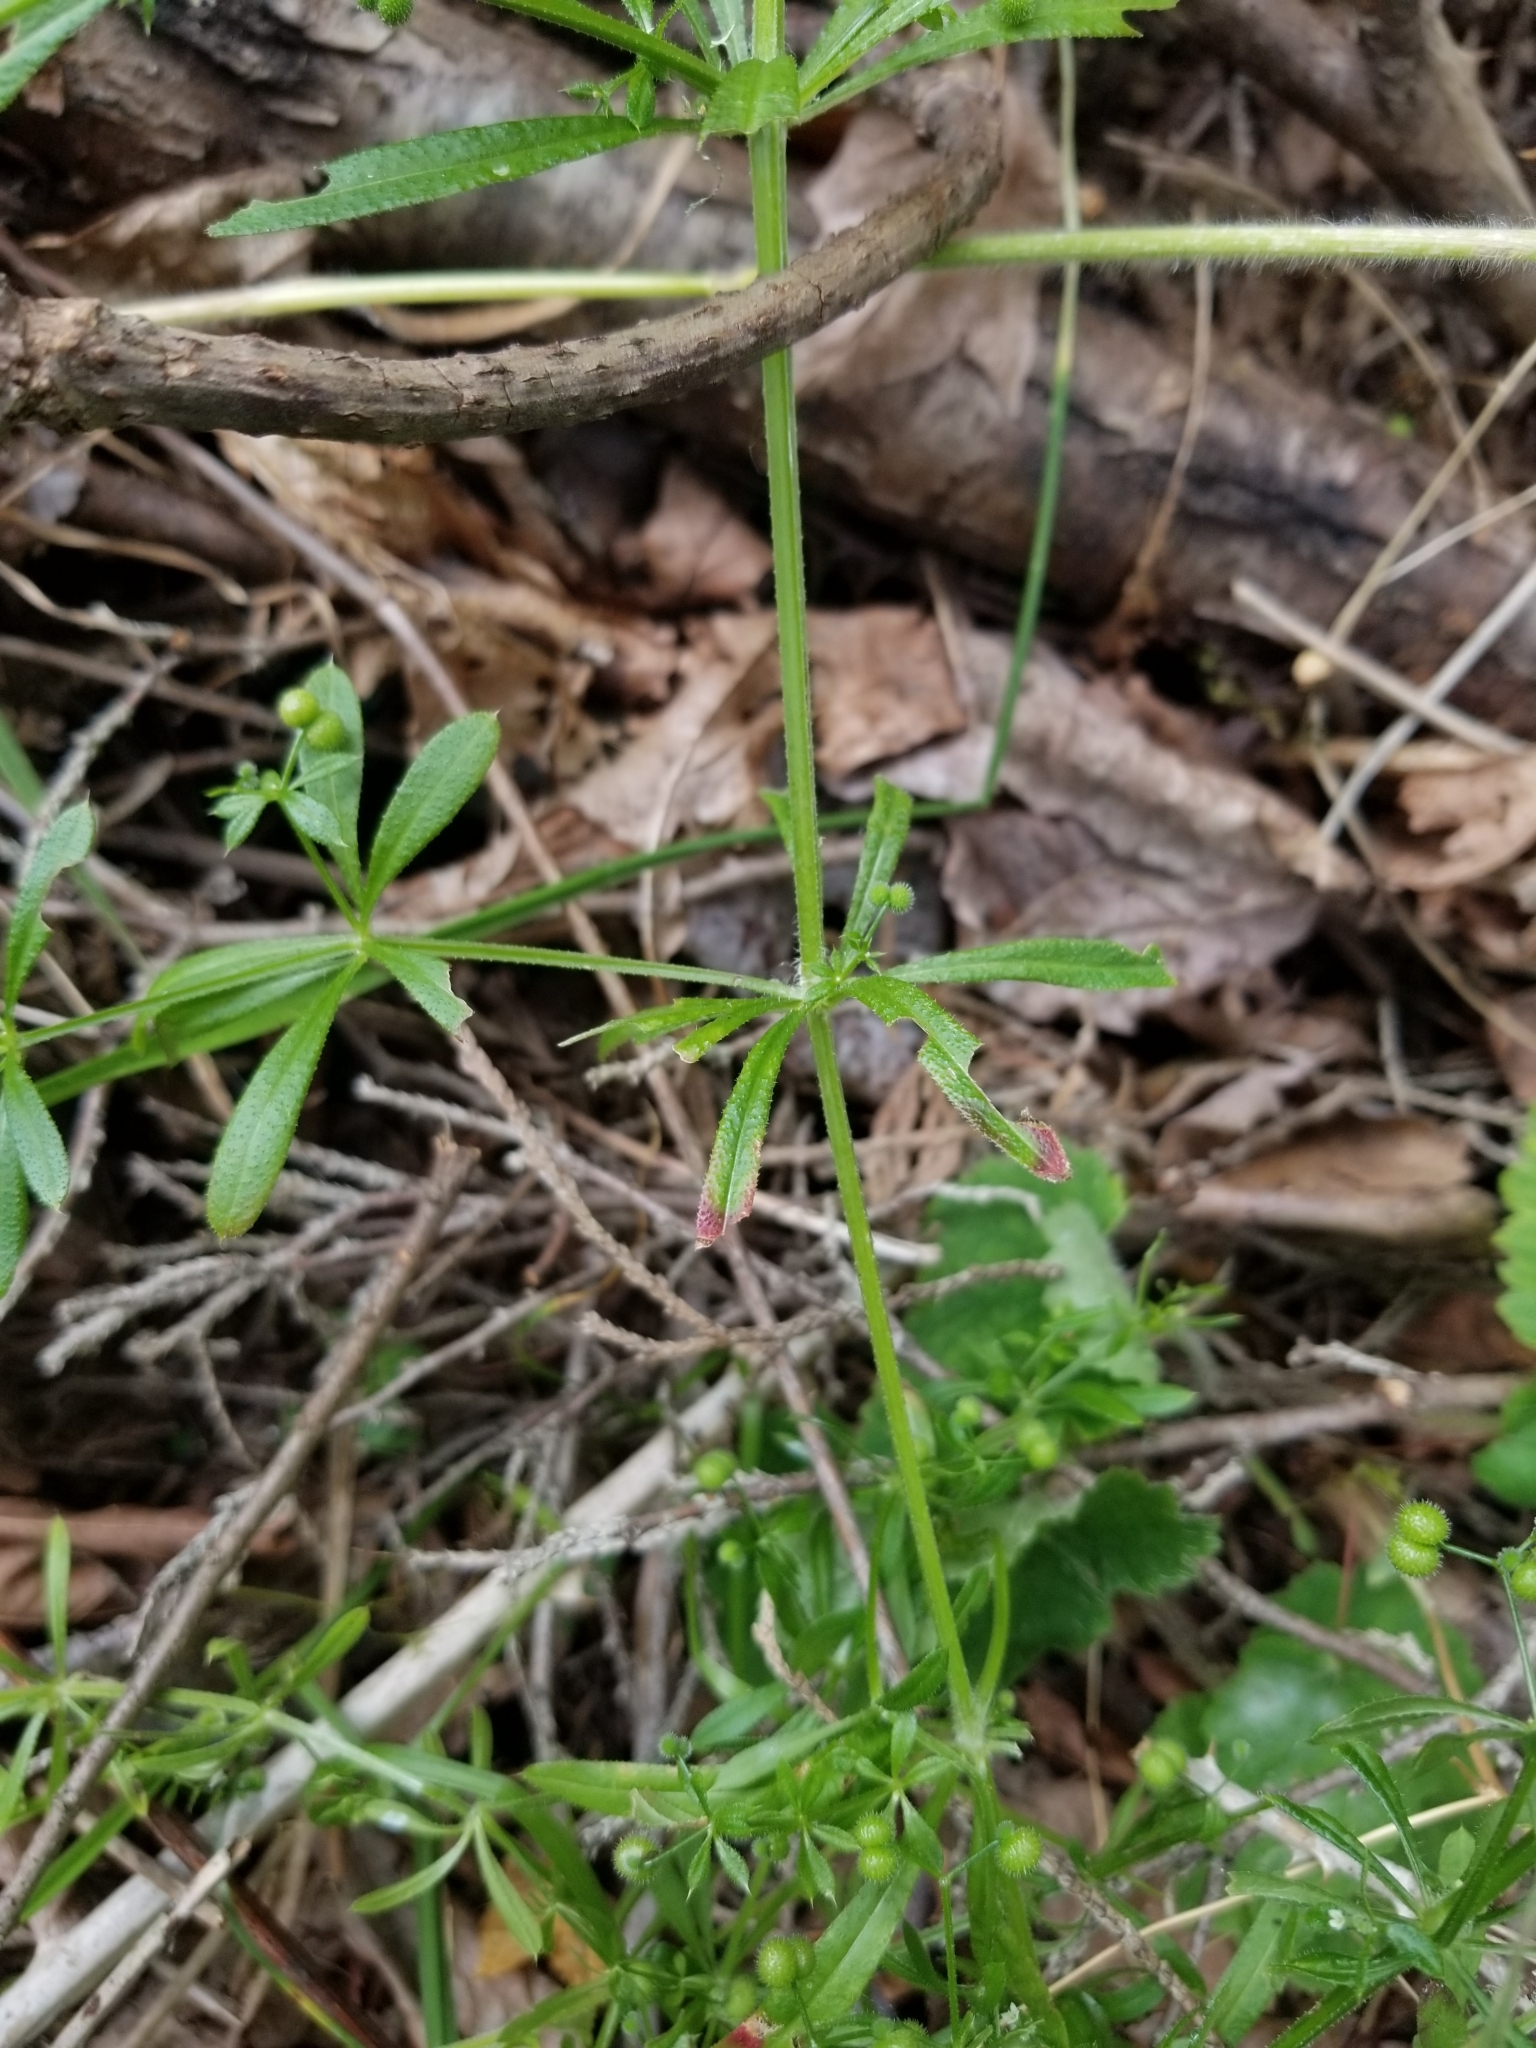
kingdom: Plantae
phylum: Tracheophyta
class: Magnoliopsida
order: Gentianales
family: Rubiaceae
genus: Galium
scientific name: Galium aparine
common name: Cleavers
